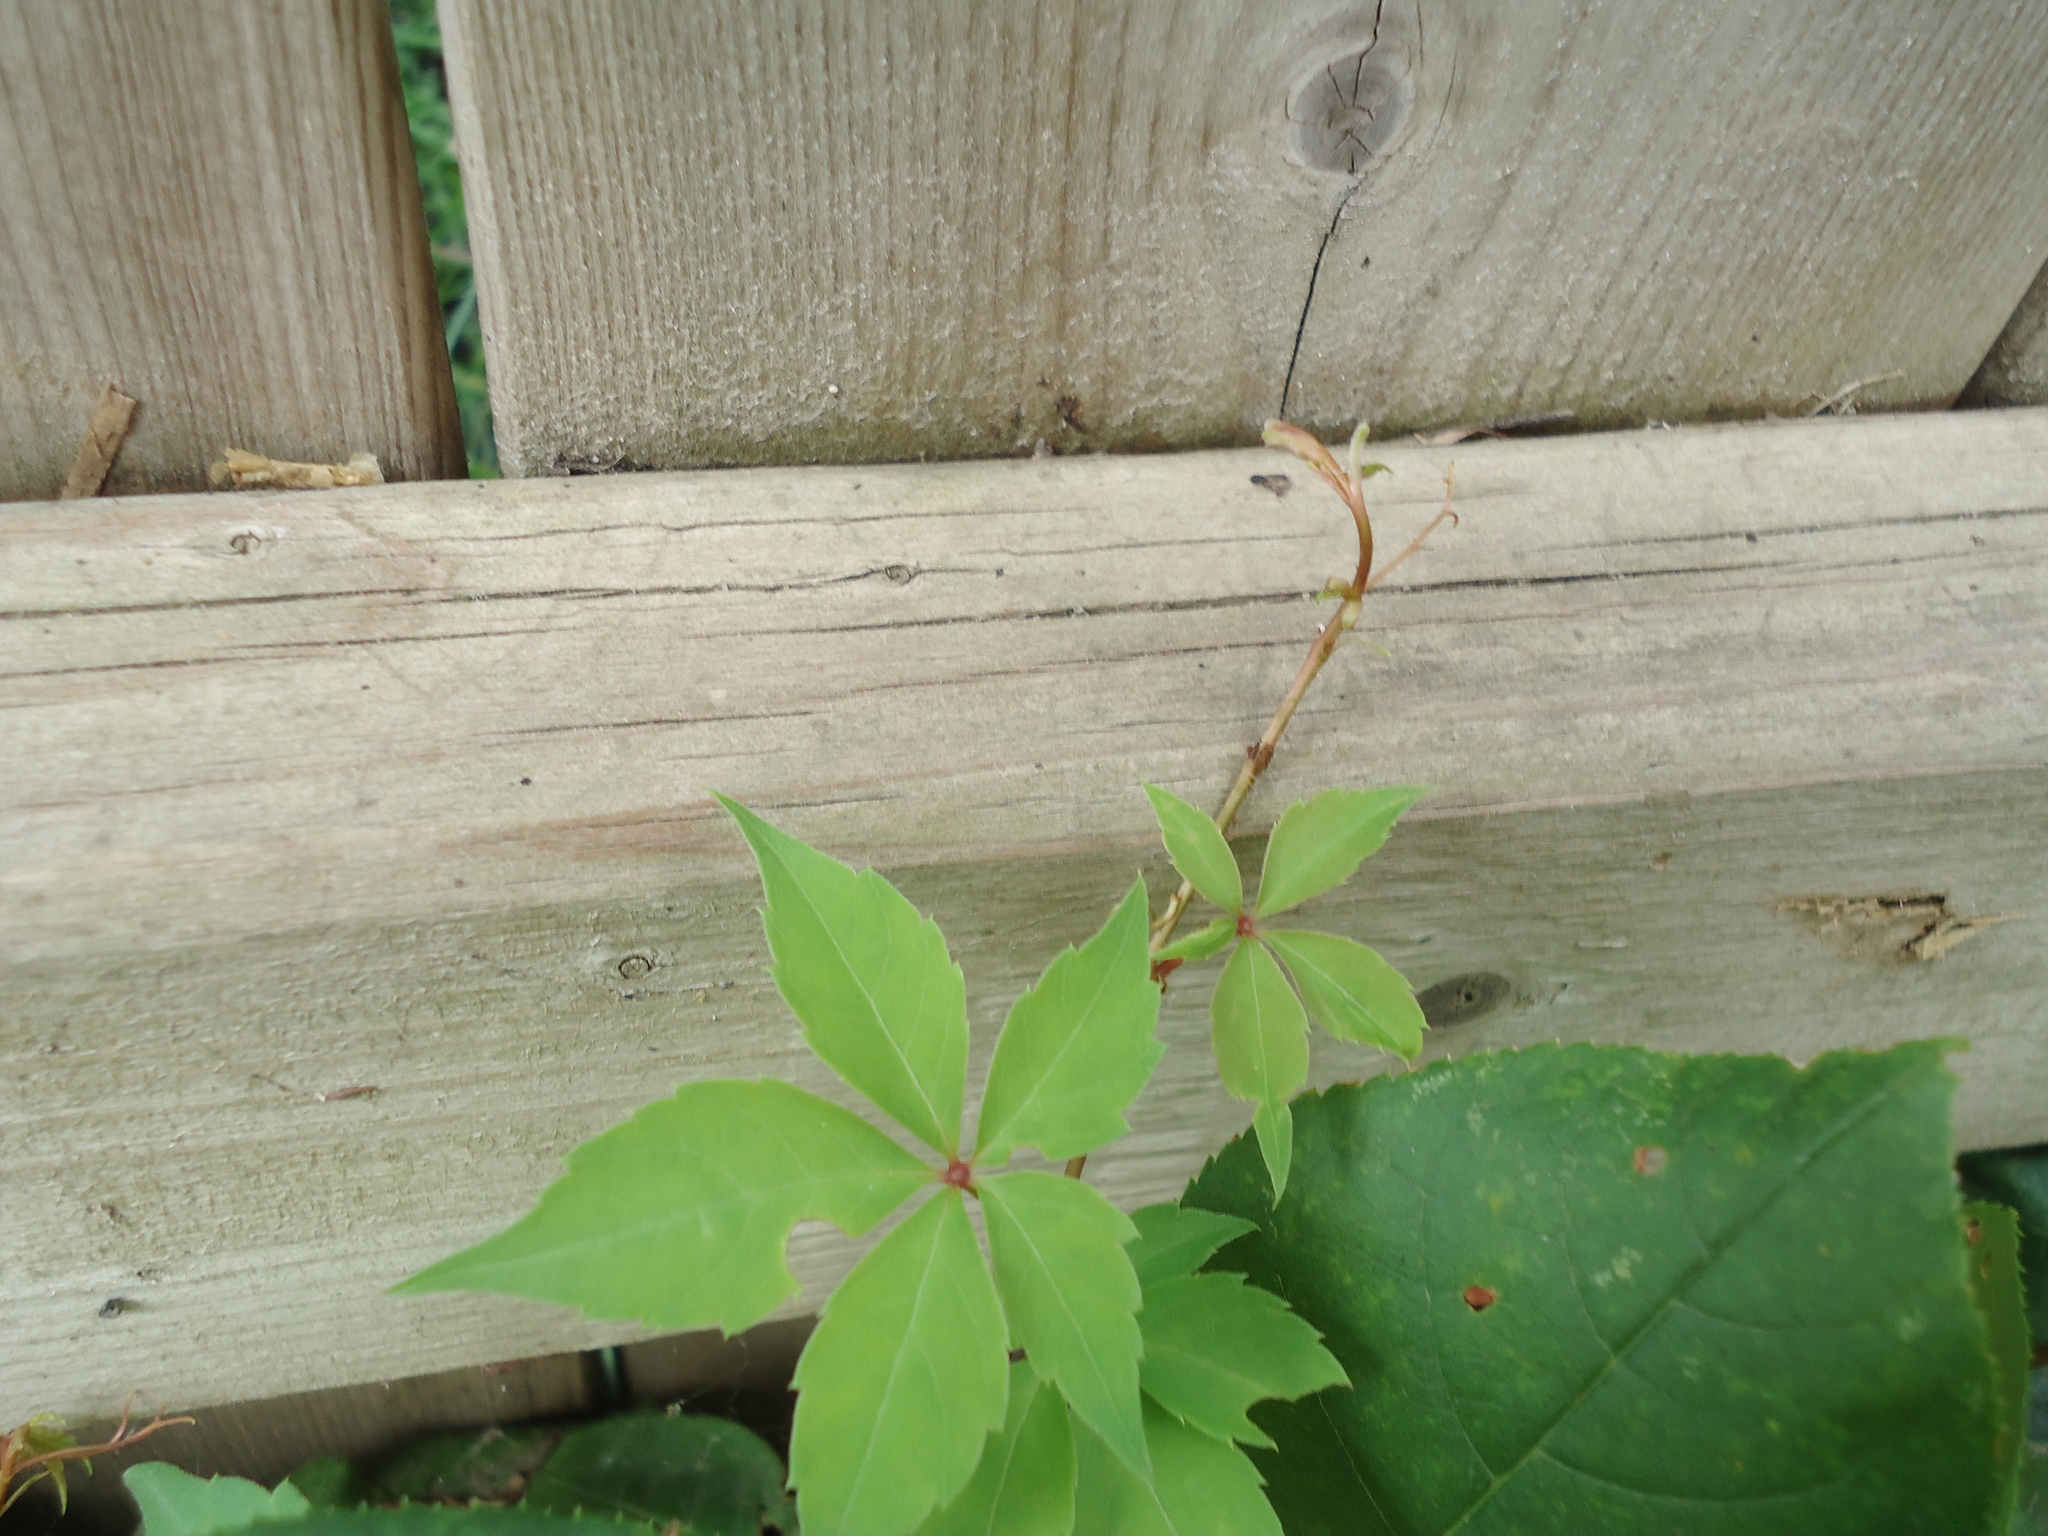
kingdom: Plantae
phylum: Tracheophyta
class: Magnoliopsida
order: Vitales
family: Vitaceae
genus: Parthenocissus
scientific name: Parthenocissus quinquefolia
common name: Virginia-creeper
